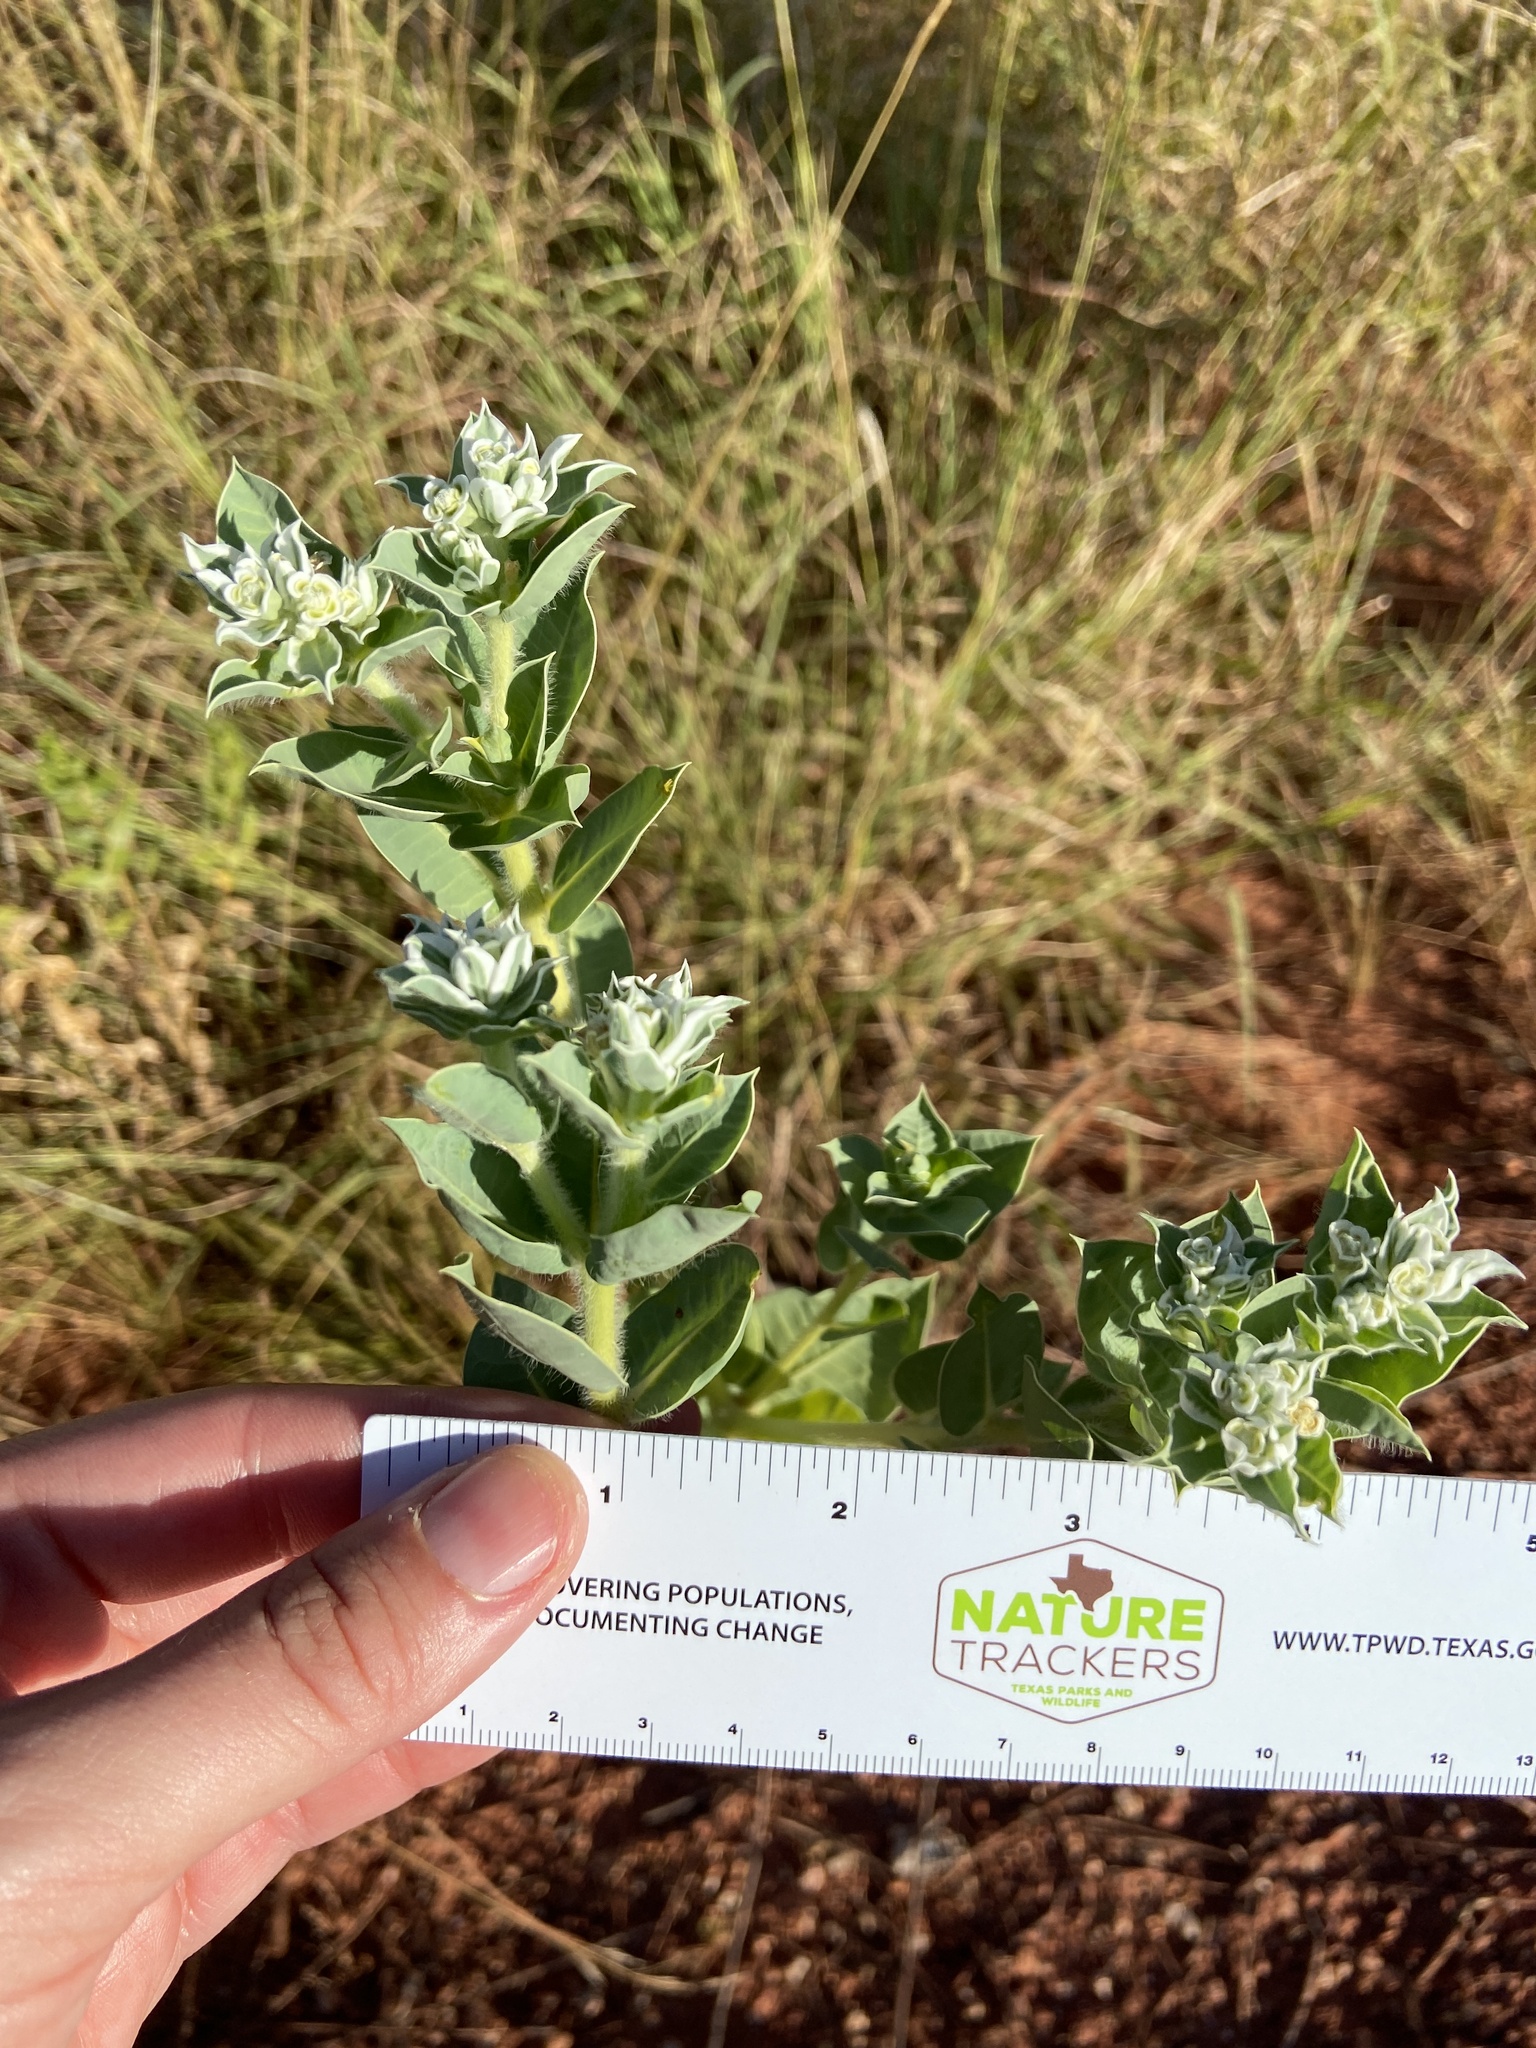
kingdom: Plantae
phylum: Tracheophyta
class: Magnoliopsida
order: Malpighiales
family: Euphorbiaceae
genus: Euphorbia
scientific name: Euphorbia marginata
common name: Ghostweed
